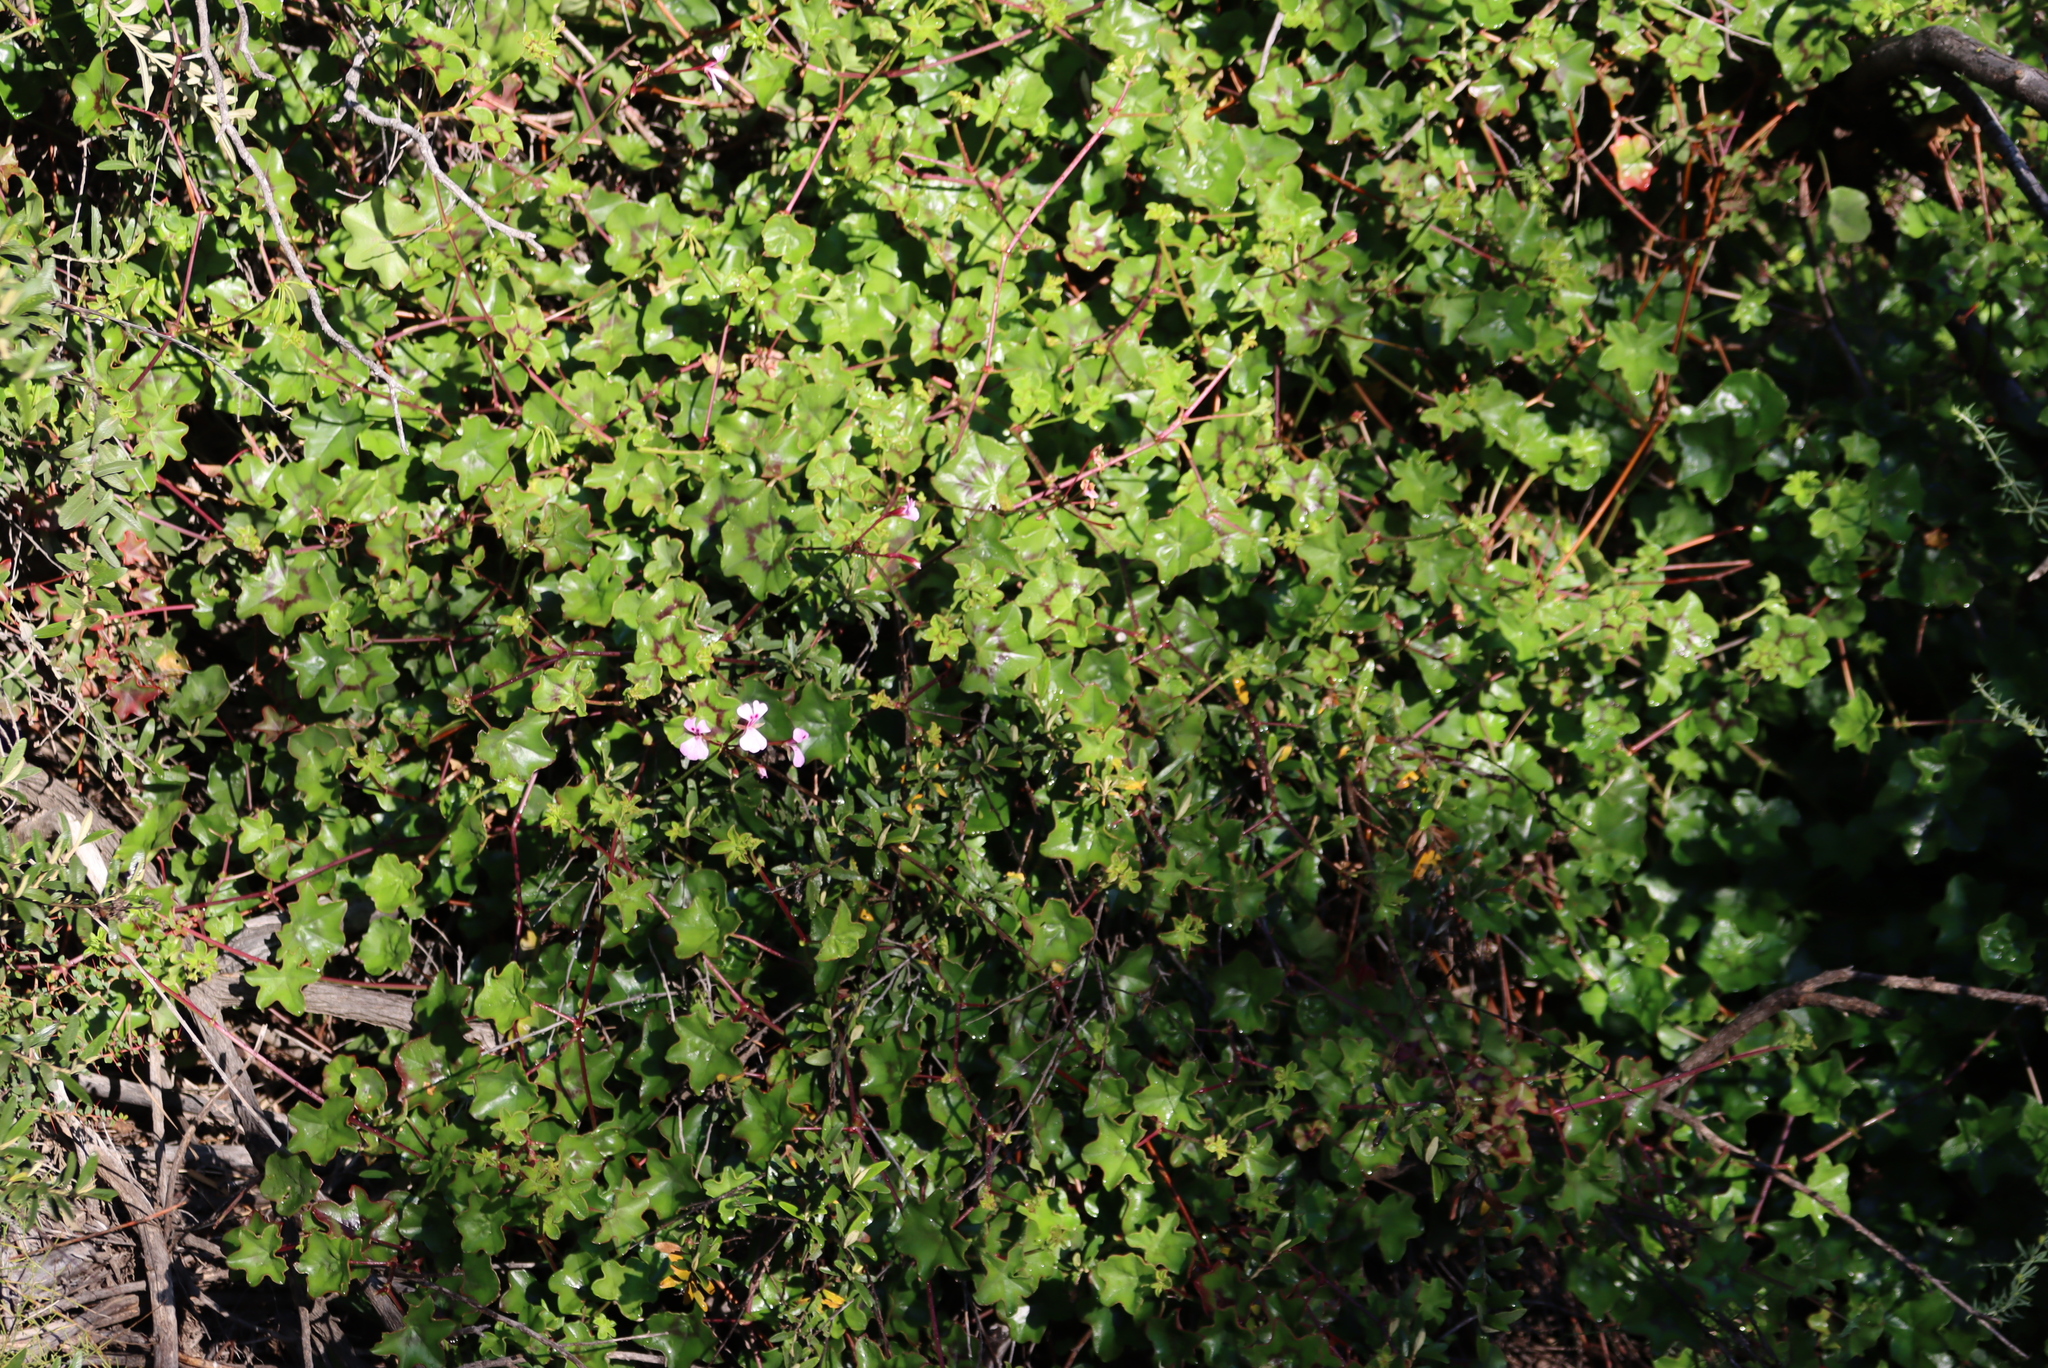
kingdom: Plantae
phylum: Tracheophyta
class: Magnoliopsida
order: Geraniales
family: Geraniaceae
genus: Pelargonium
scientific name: Pelargonium peltatum
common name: Ivyleaf geranium
